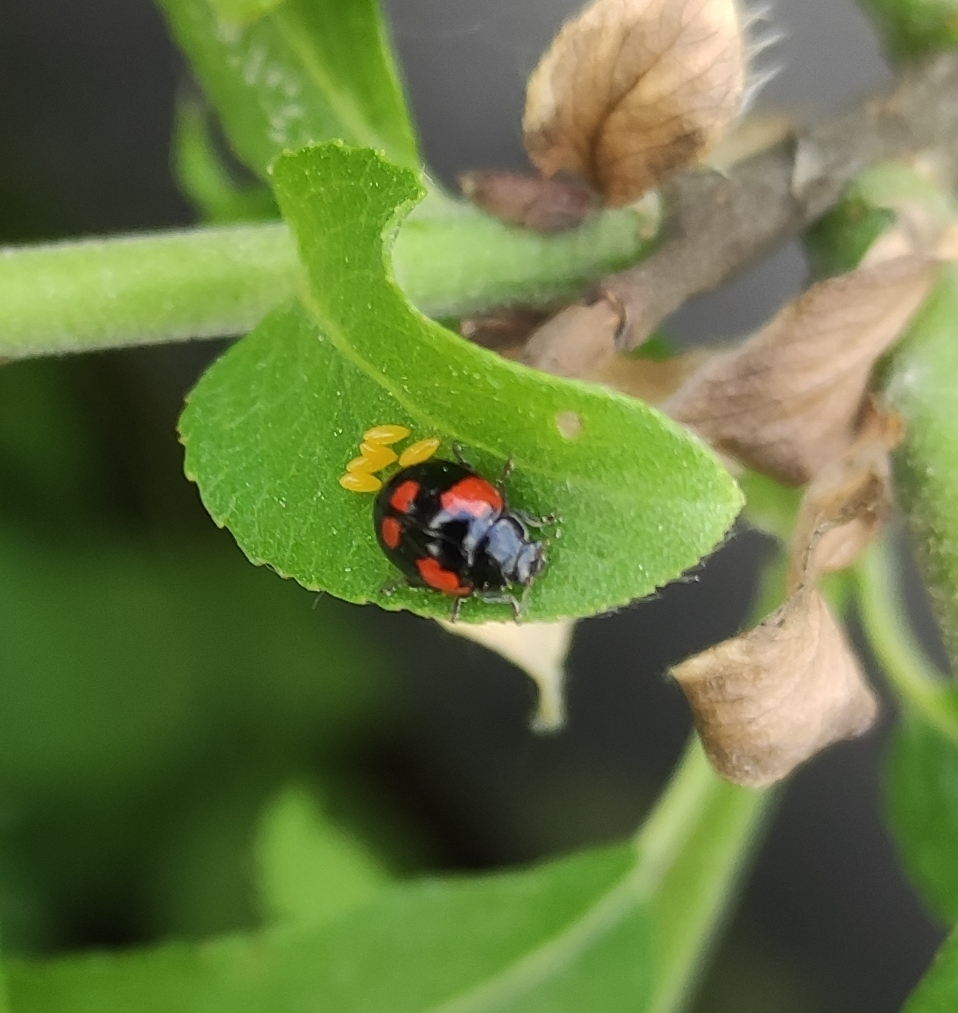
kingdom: Animalia
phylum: Arthropoda
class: Insecta
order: Coleoptera
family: Coccinellidae
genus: Adalia
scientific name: Adalia bipunctata
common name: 2-spot ladybird
